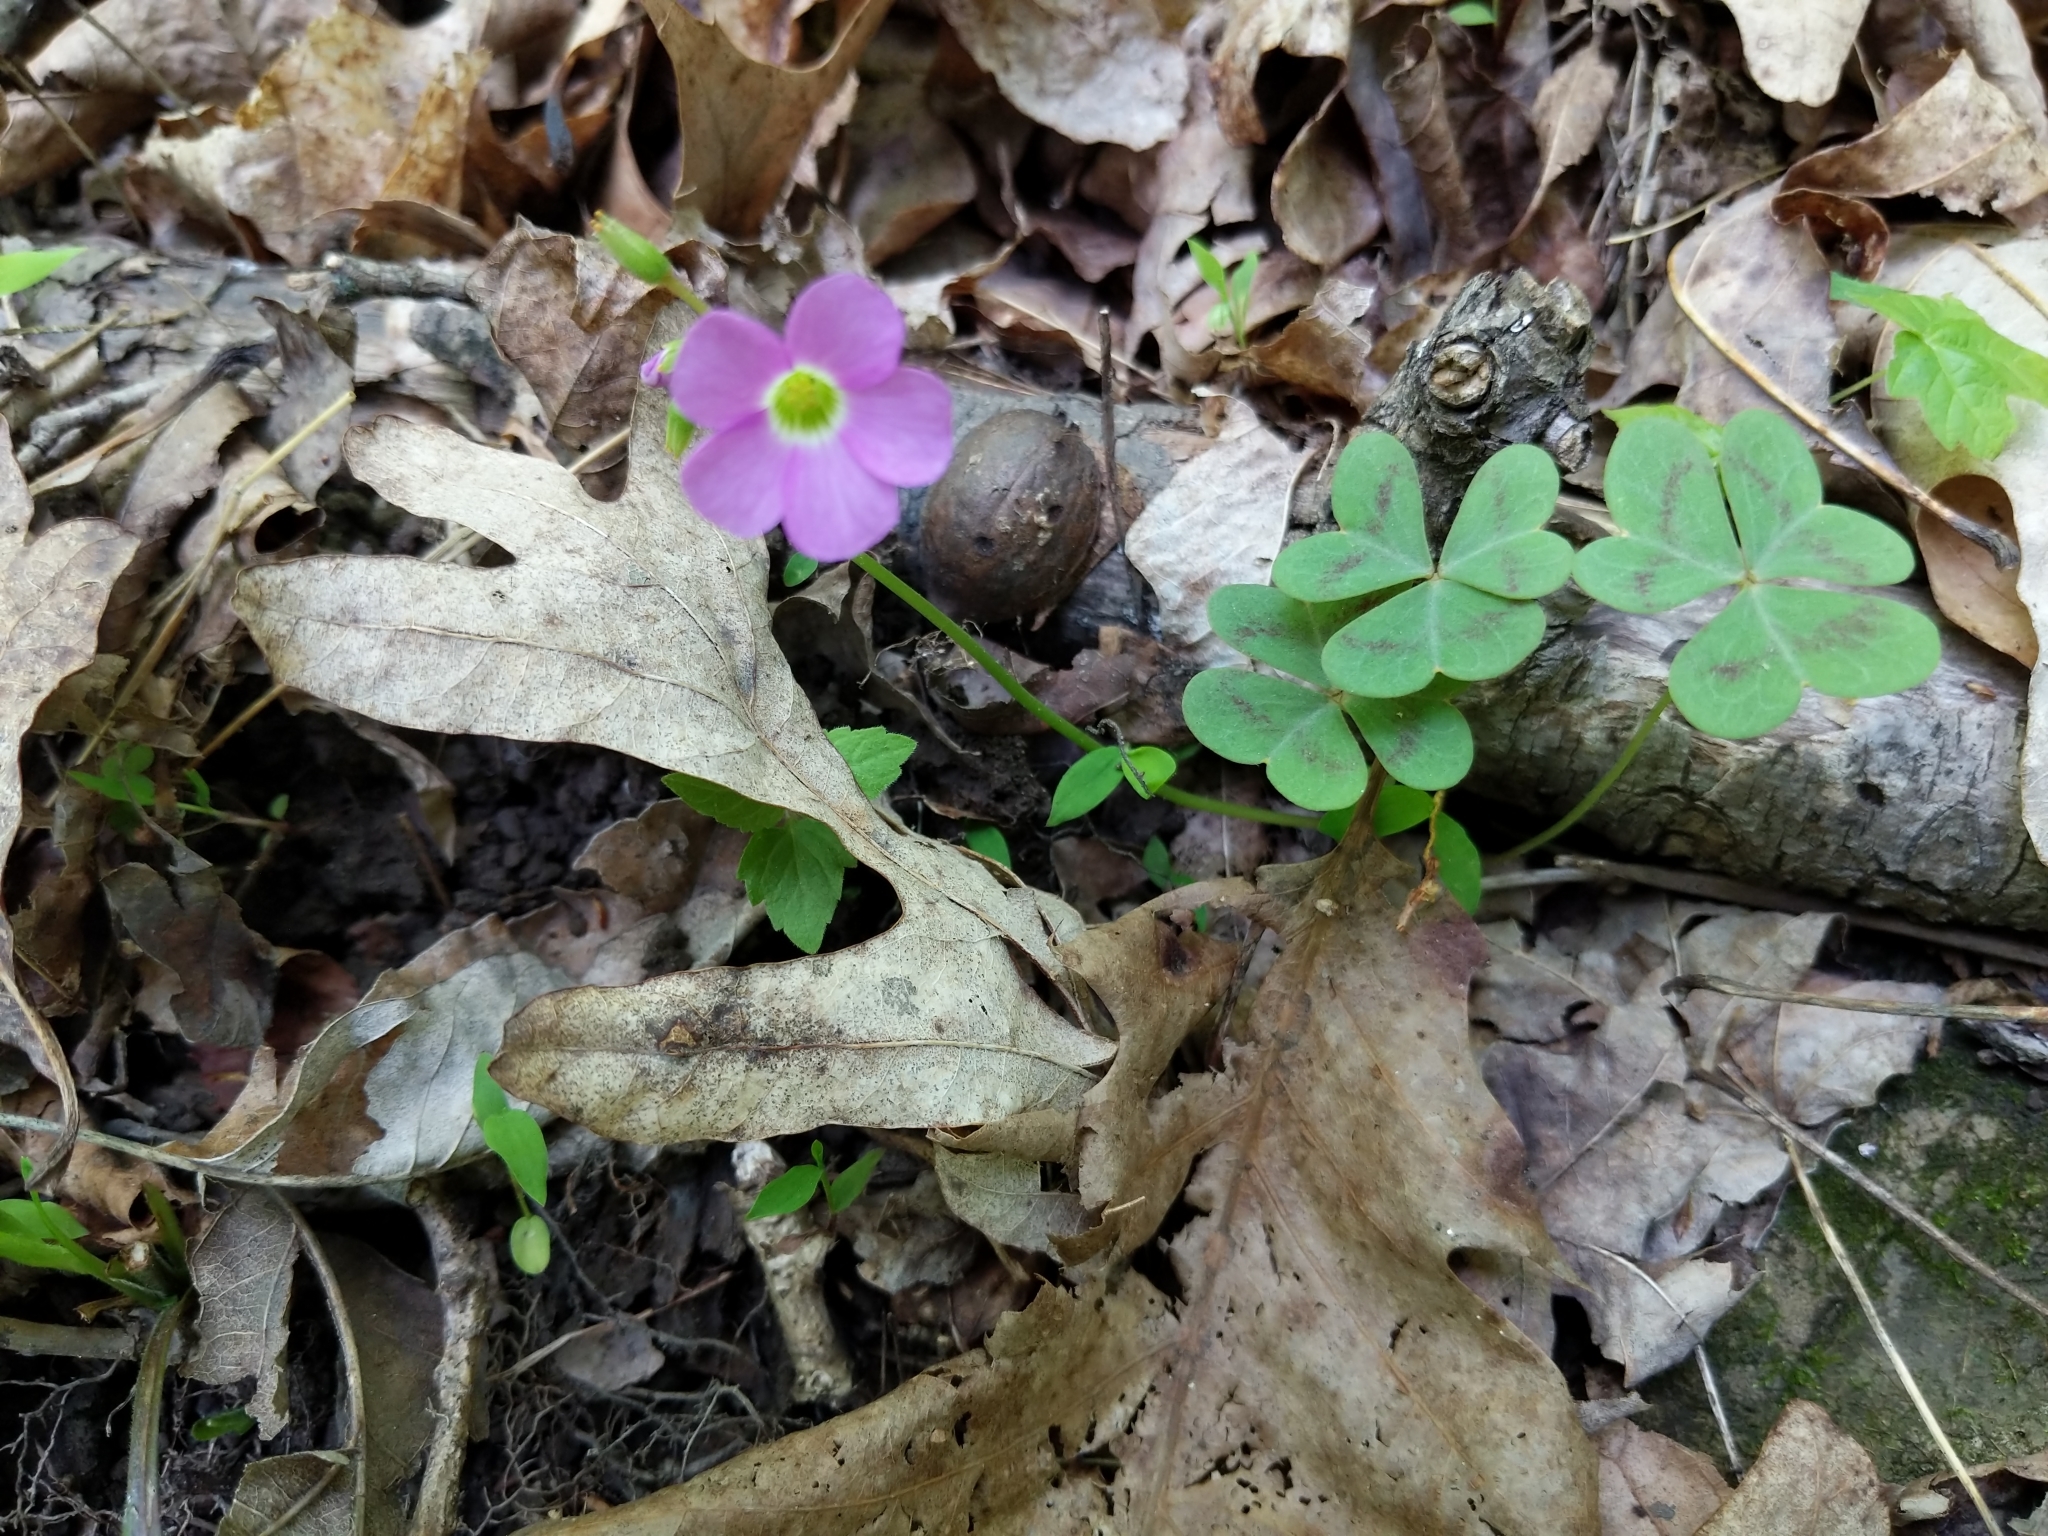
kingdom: Plantae
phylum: Tracheophyta
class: Magnoliopsida
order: Oxalidales
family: Oxalidaceae
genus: Oxalis
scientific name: Oxalis violacea
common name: Violet wood-sorrel
